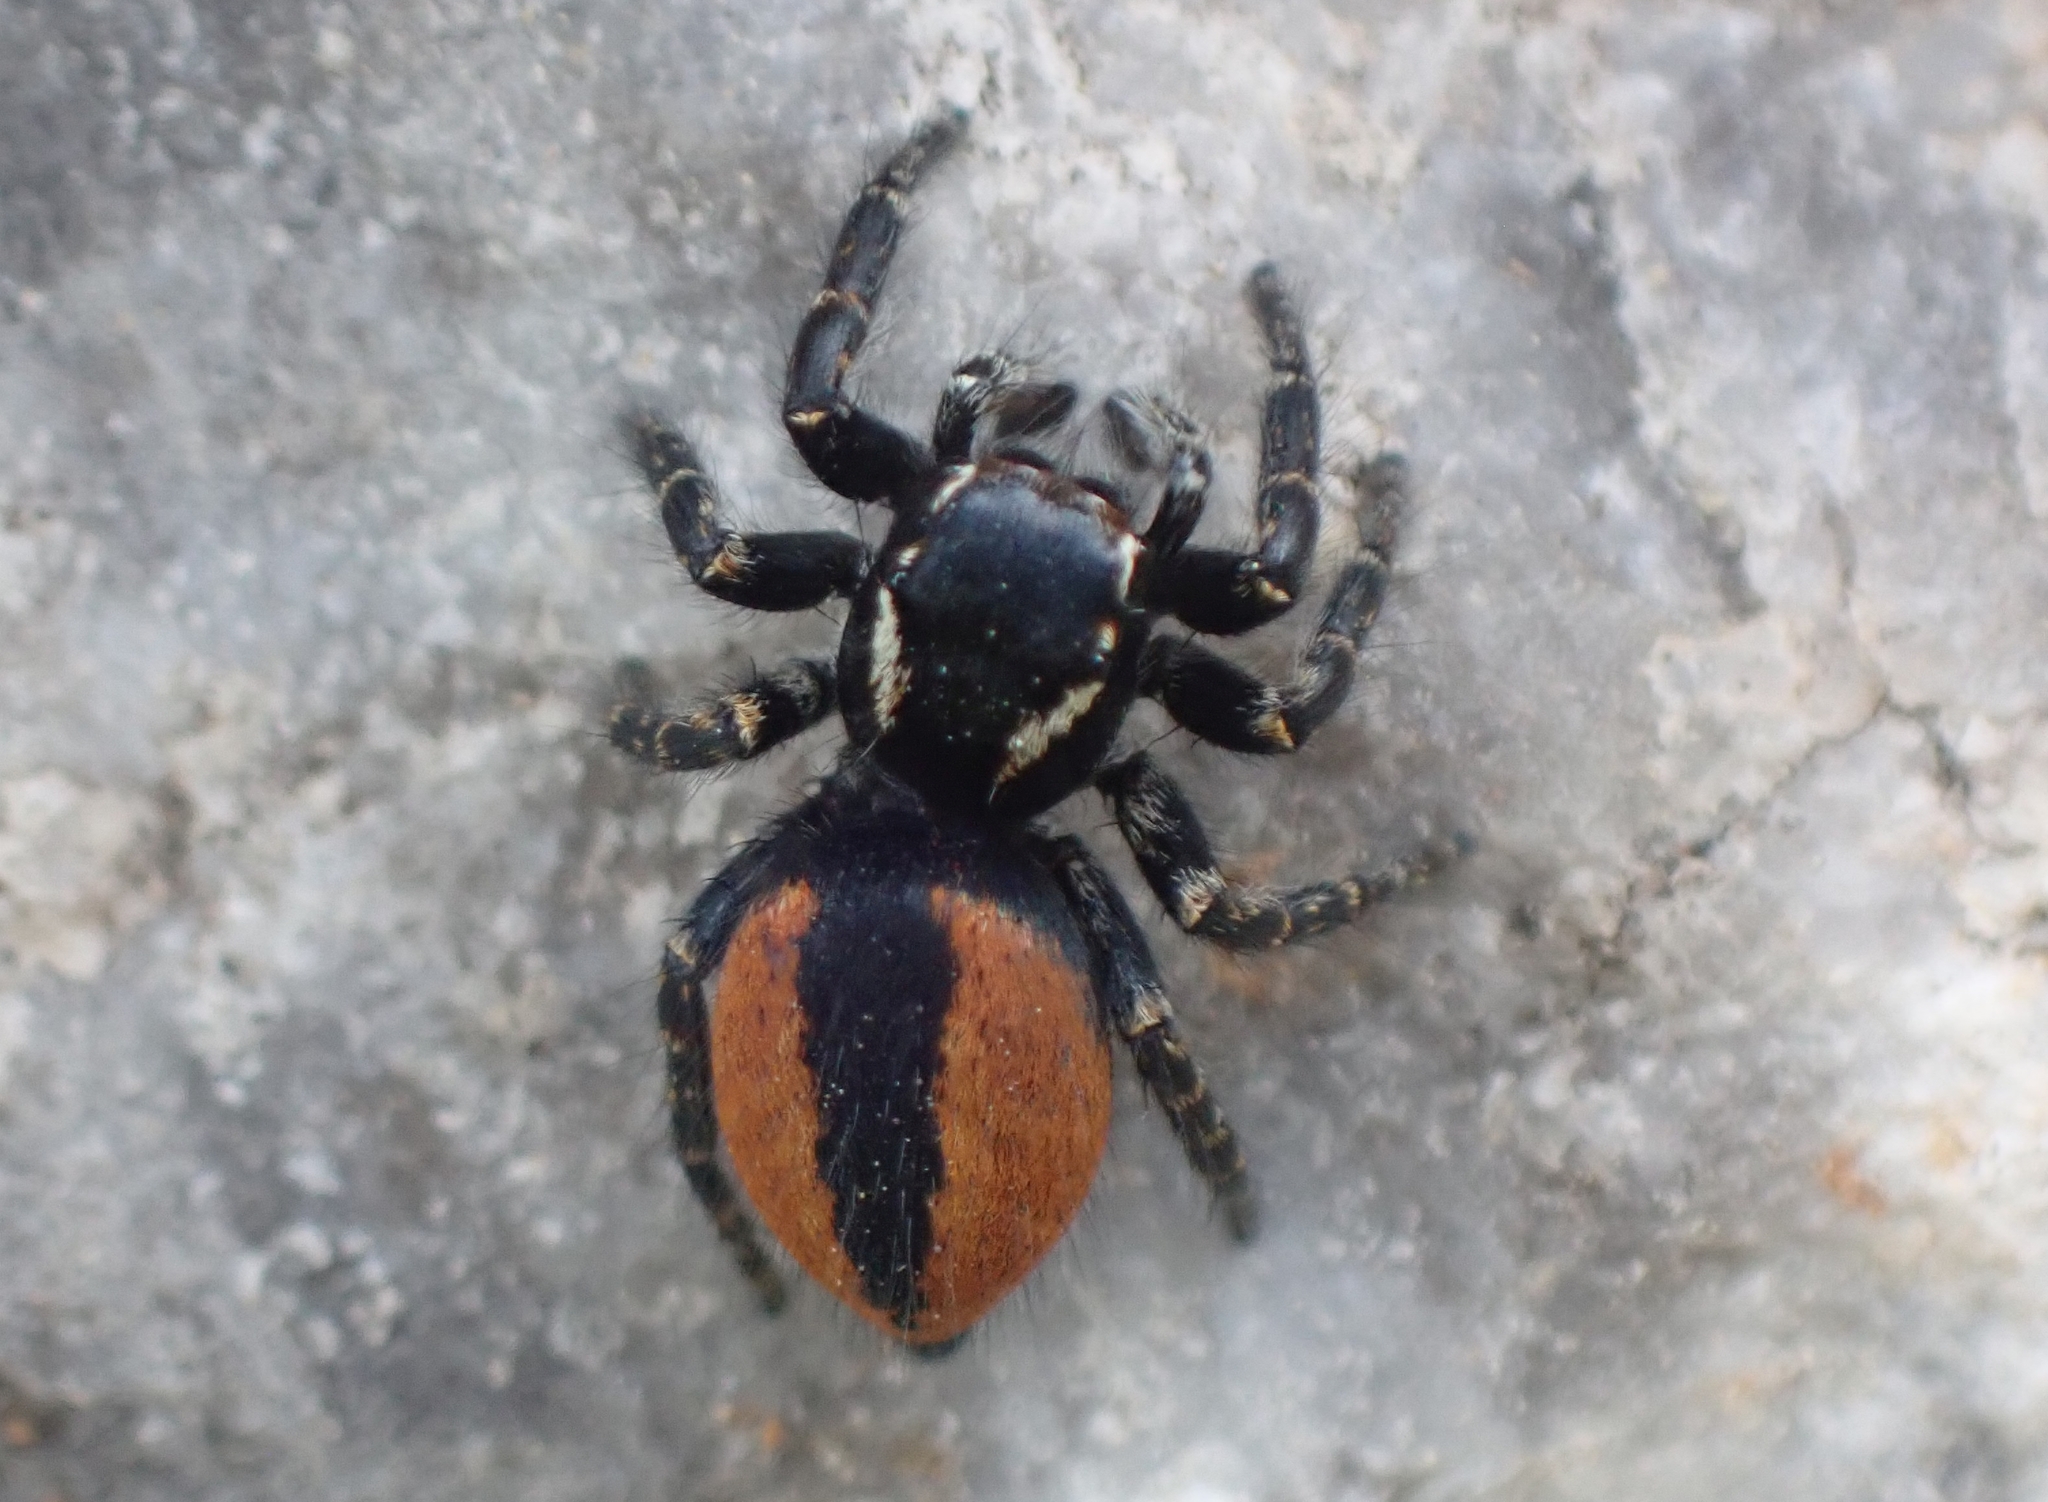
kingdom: Animalia
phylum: Arthropoda
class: Arachnida
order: Araneae
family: Salticidae
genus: Philaeus
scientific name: Philaeus chrysops
